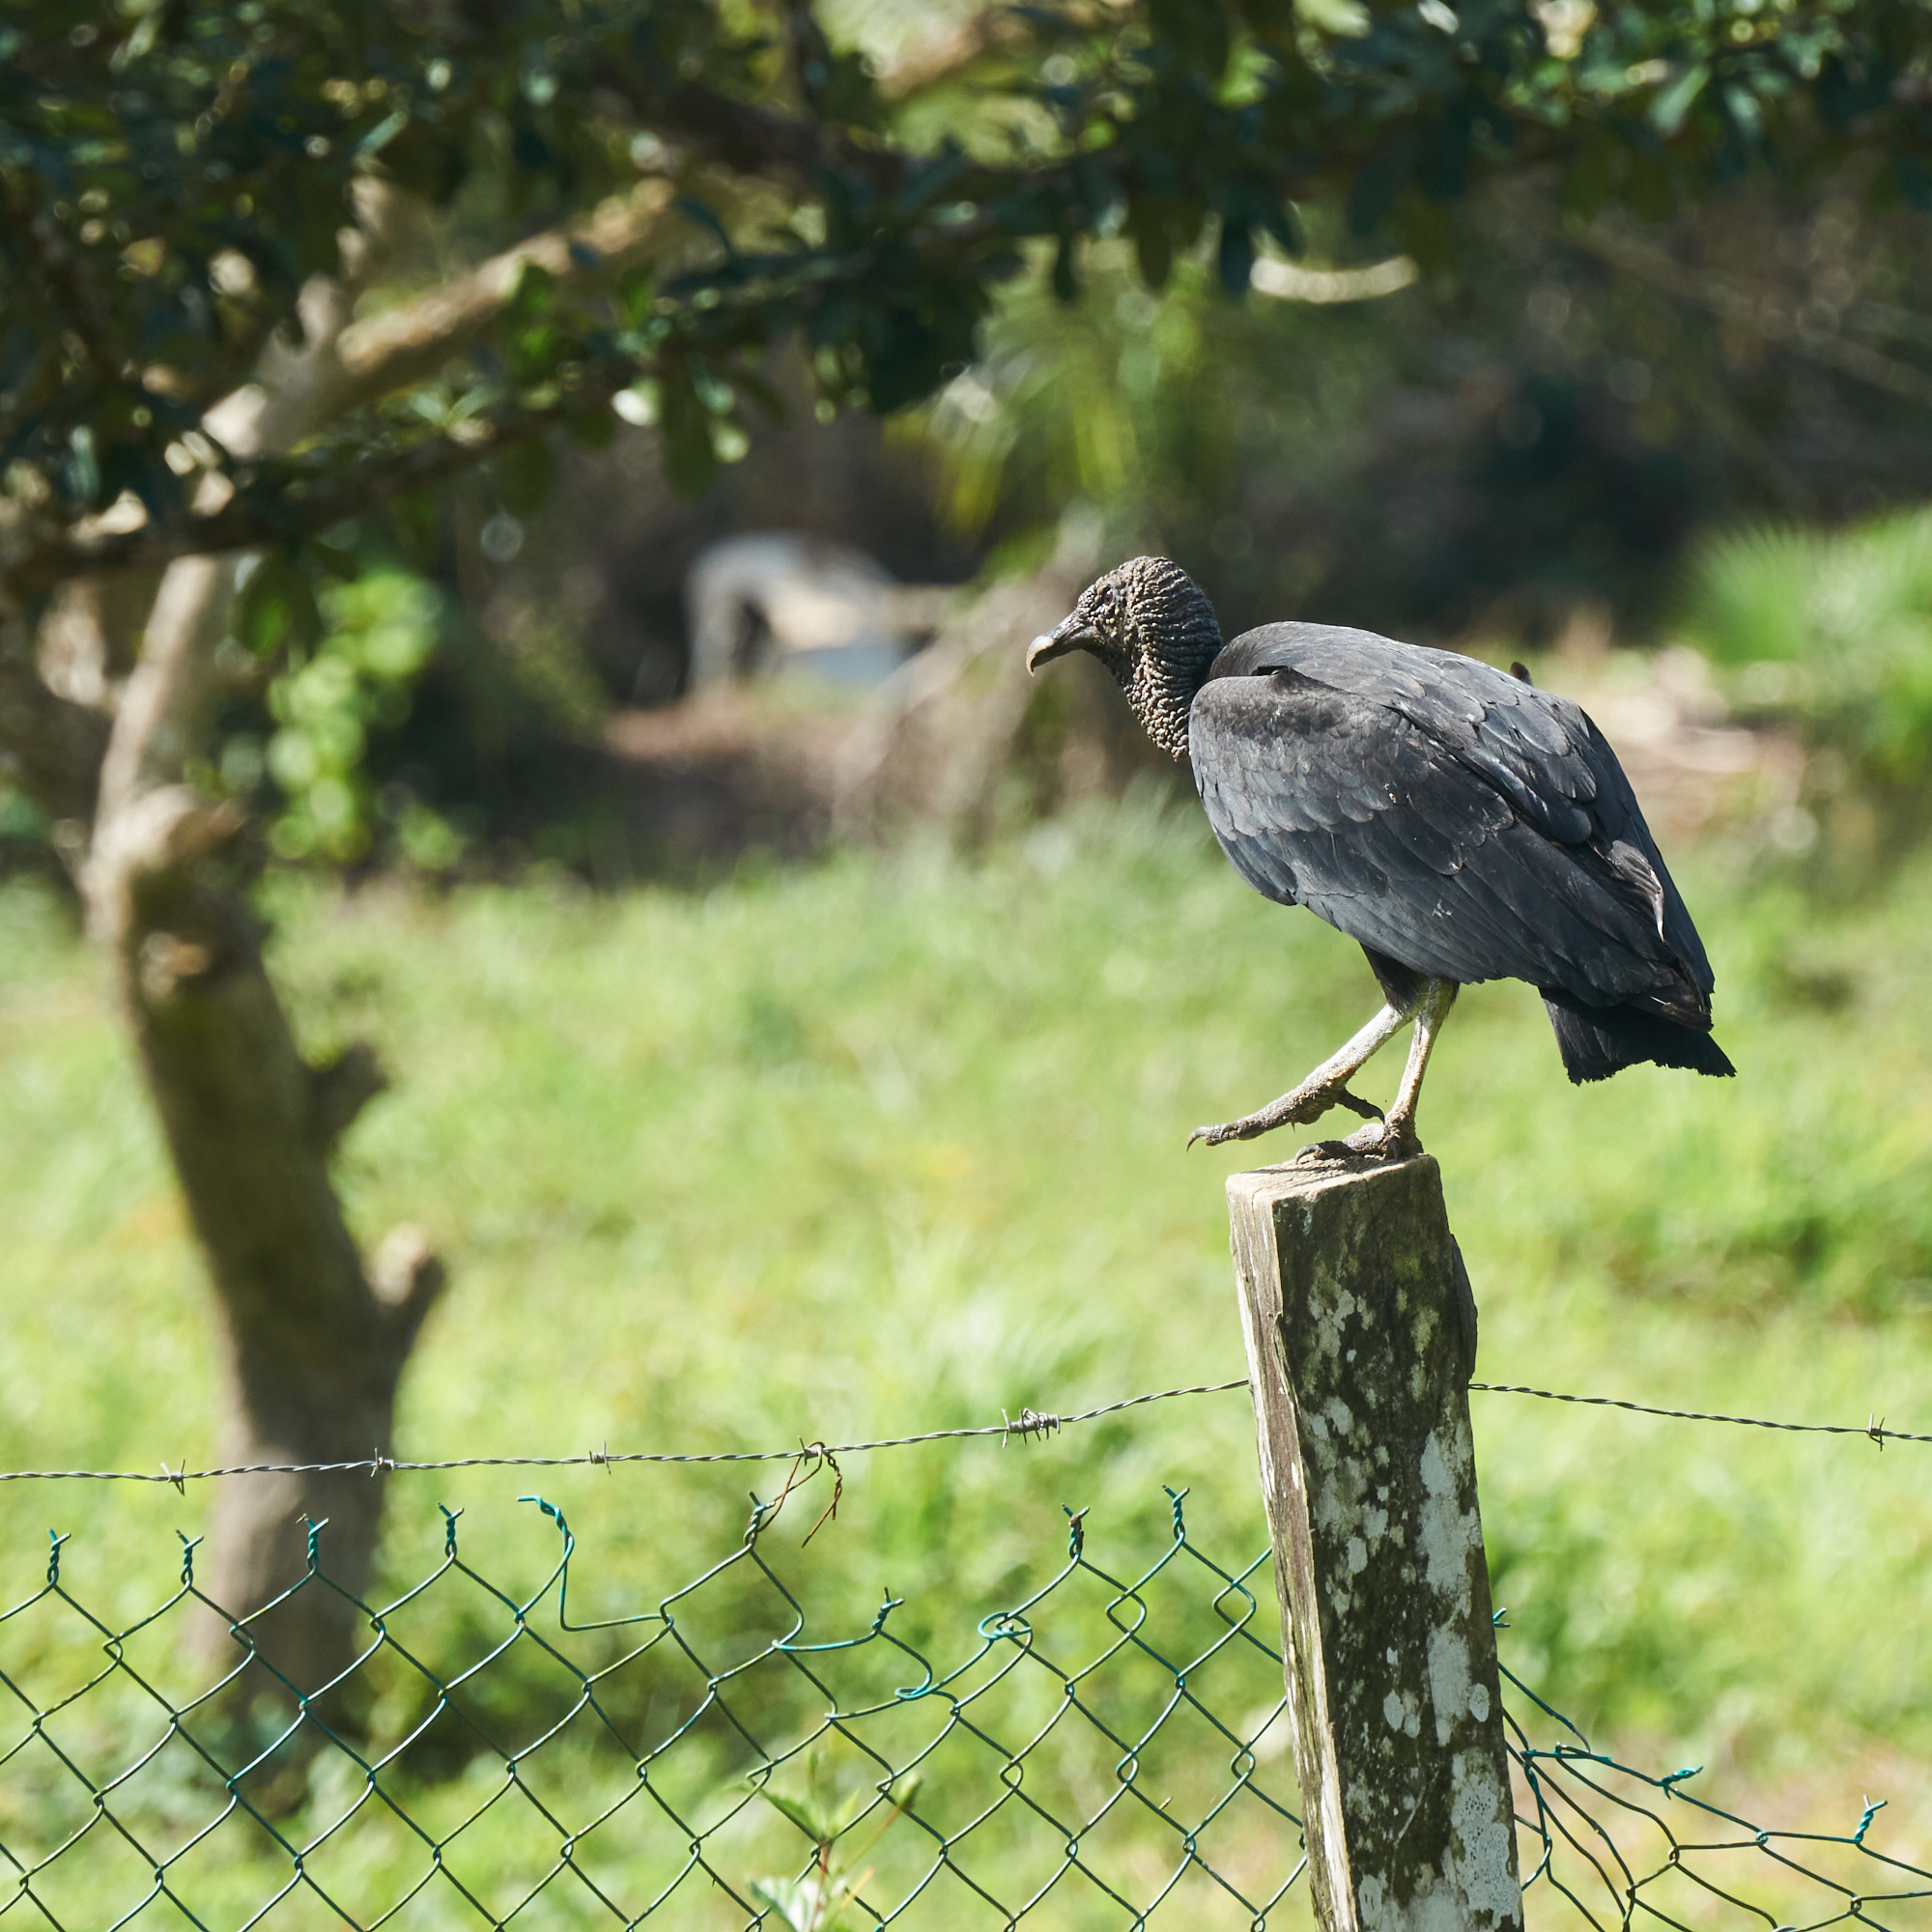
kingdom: Animalia
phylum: Chordata
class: Aves
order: Accipitriformes
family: Cathartidae
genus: Coragyps
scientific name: Coragyps atratus
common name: Black vulture
